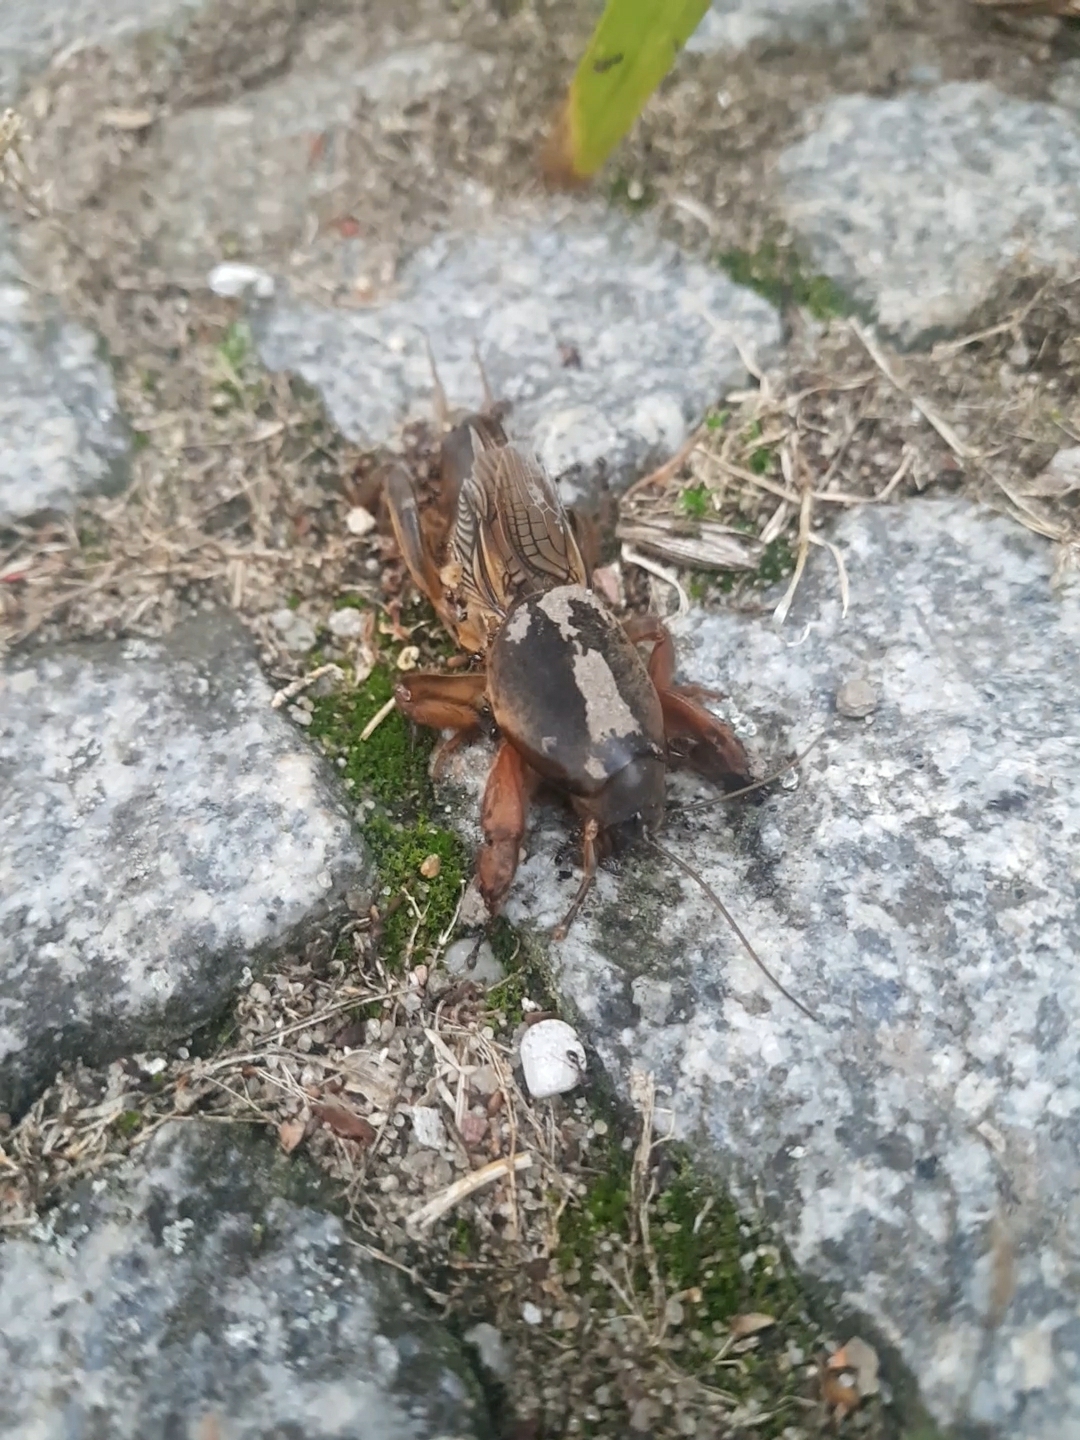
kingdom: Animalia
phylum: Arthropoda
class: Insecta
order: Orthoptera
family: Gryllotalpidae
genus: Gryllotalpa
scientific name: Gryllotalpa gryllotalpa
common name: European mole cricket
